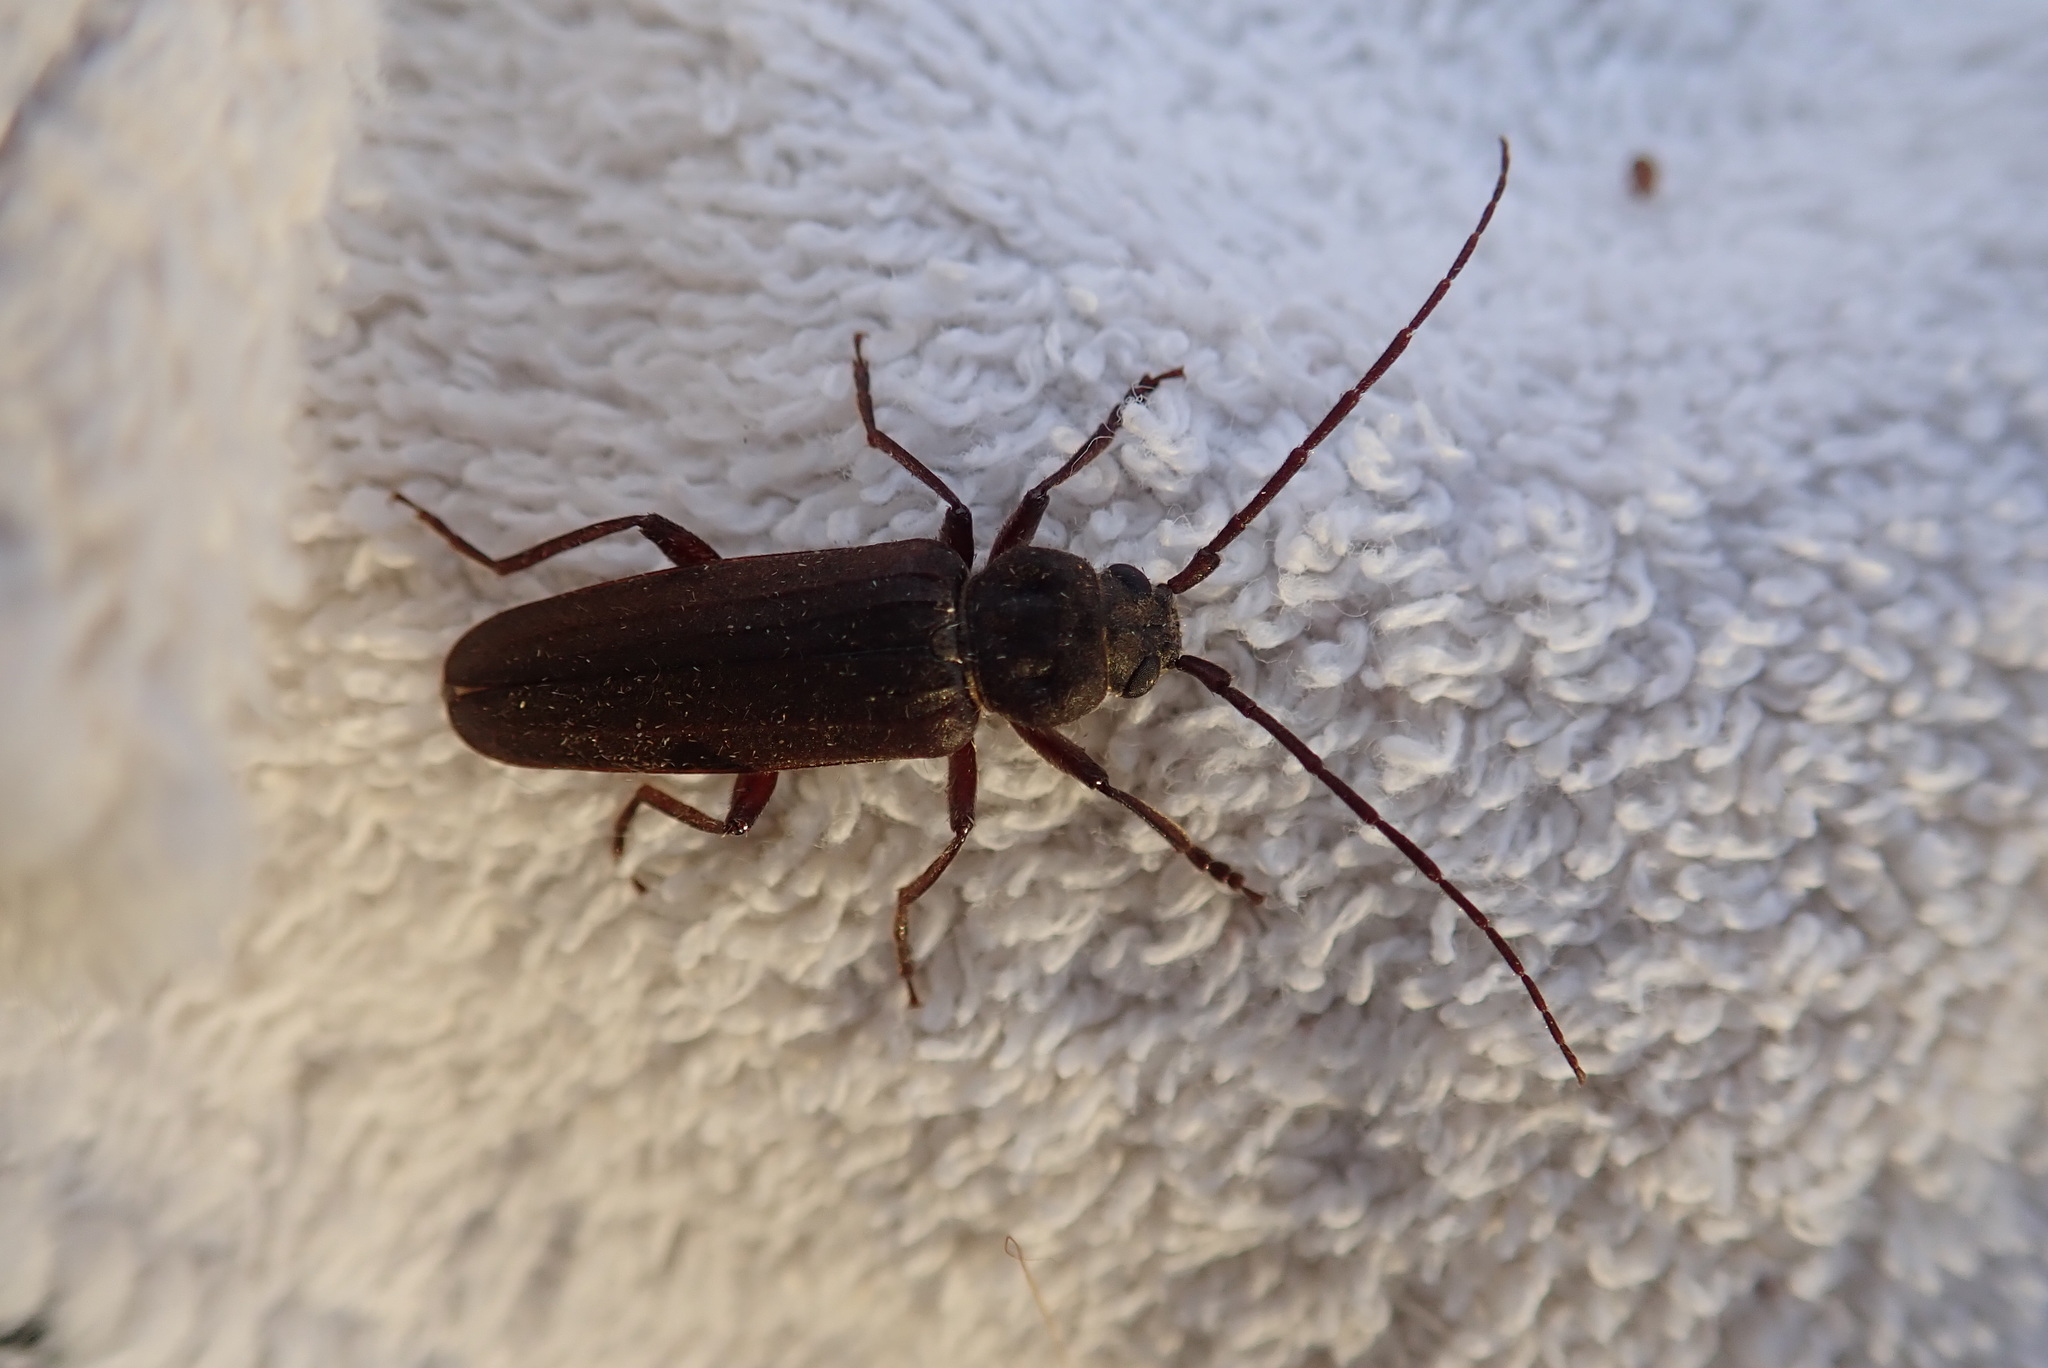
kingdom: Animalia
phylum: Arthropoda
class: Insecta
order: Coleoptera
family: Cerambycidae
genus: Arhopalus
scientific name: Arhopalus foveicollis
